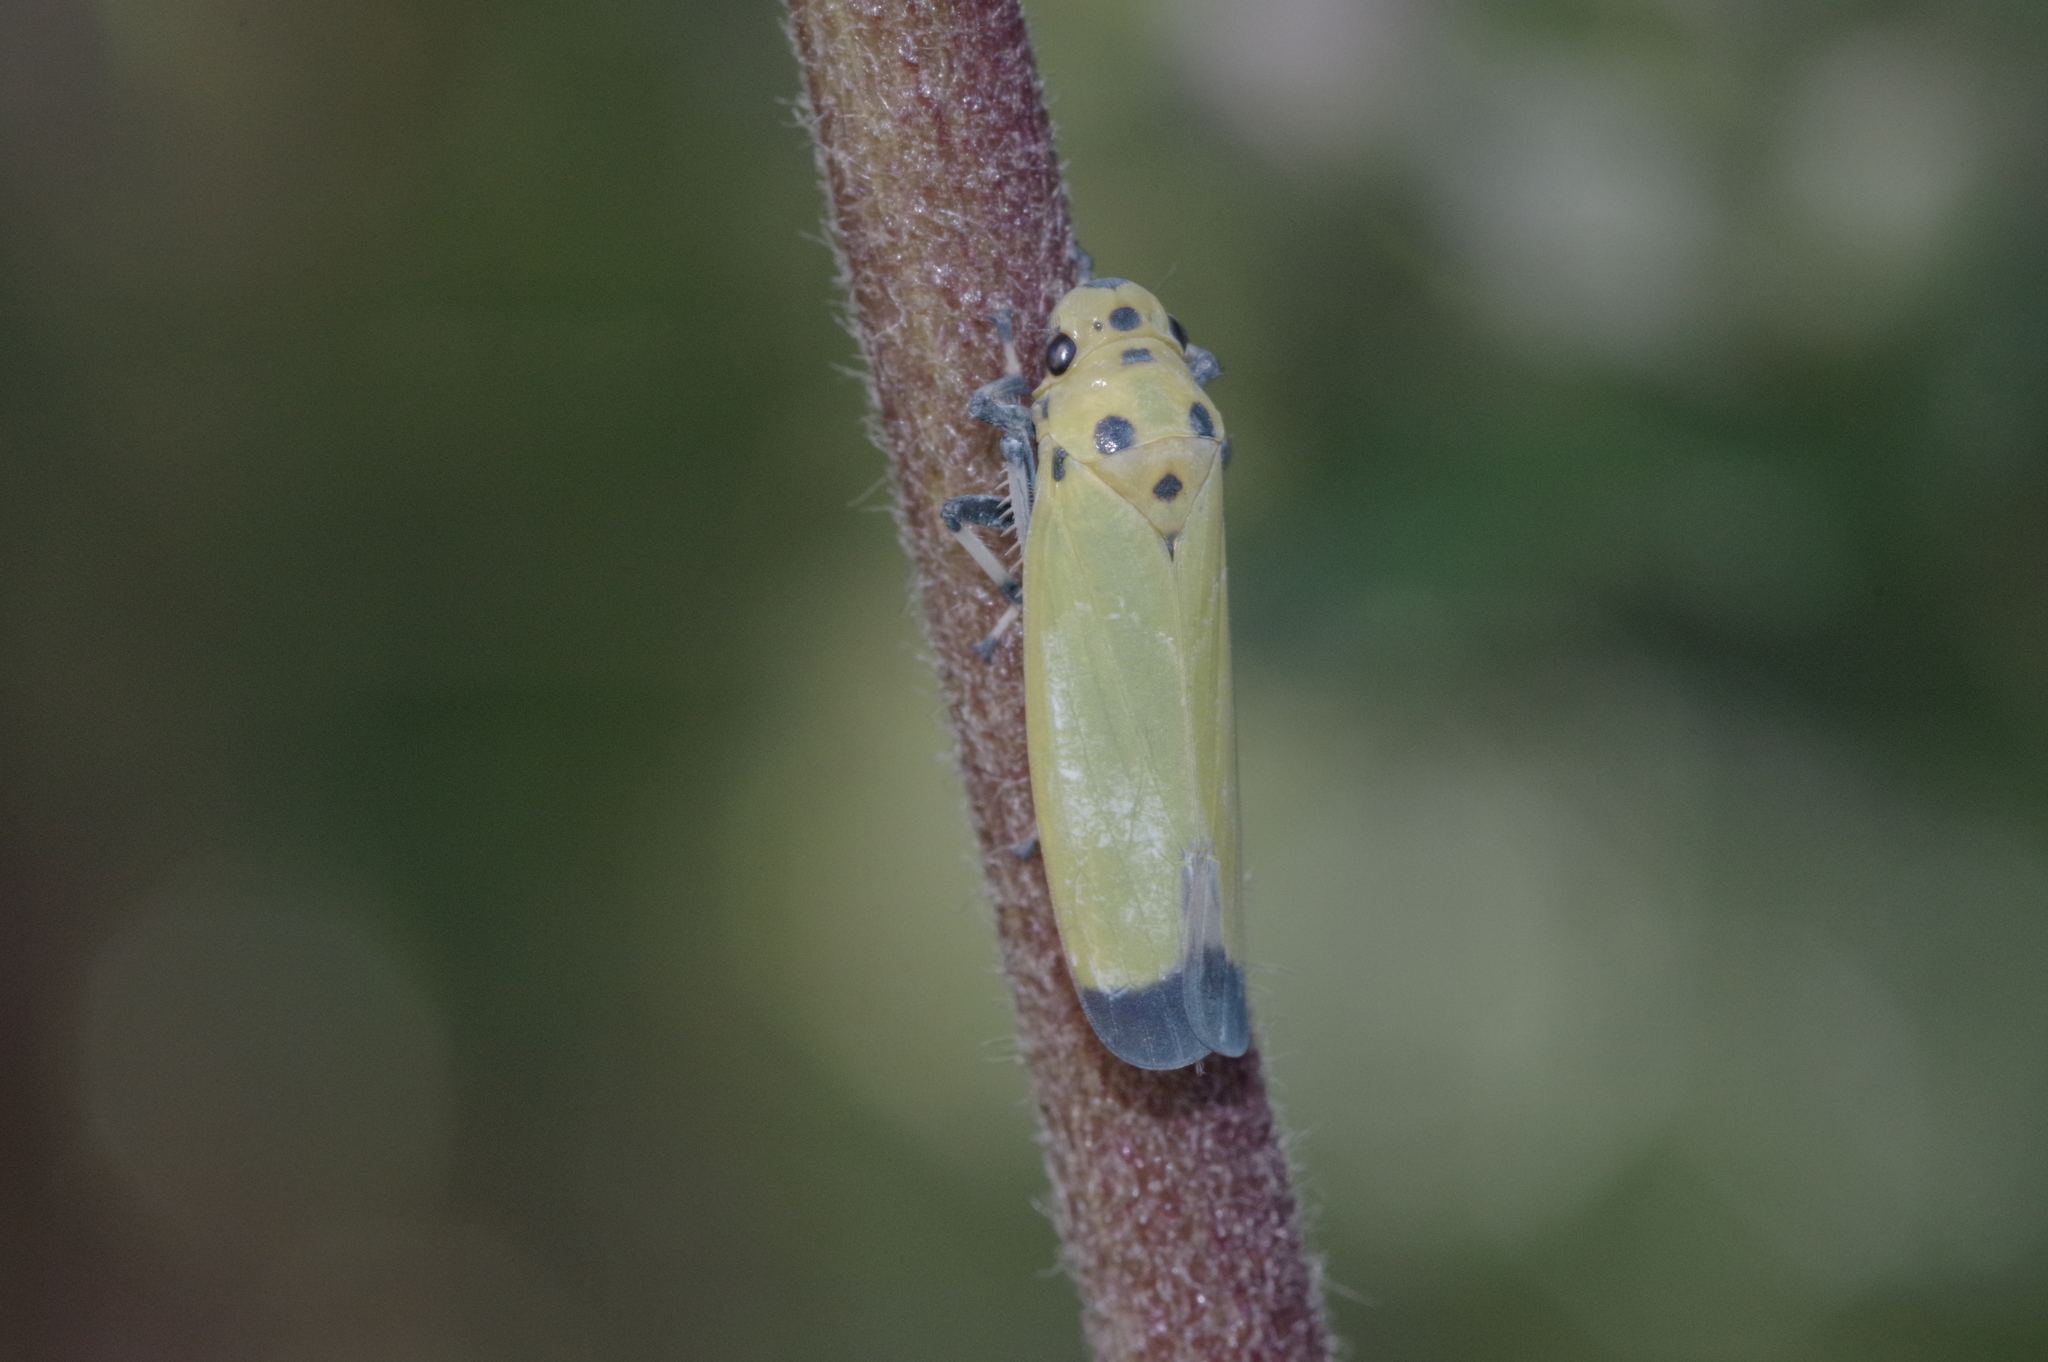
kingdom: Animalia
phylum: Arthropoda
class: Insecta
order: Hemiptera
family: Cicadellidae
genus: Bothrogonia
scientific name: Bothrogonia ferruginea
